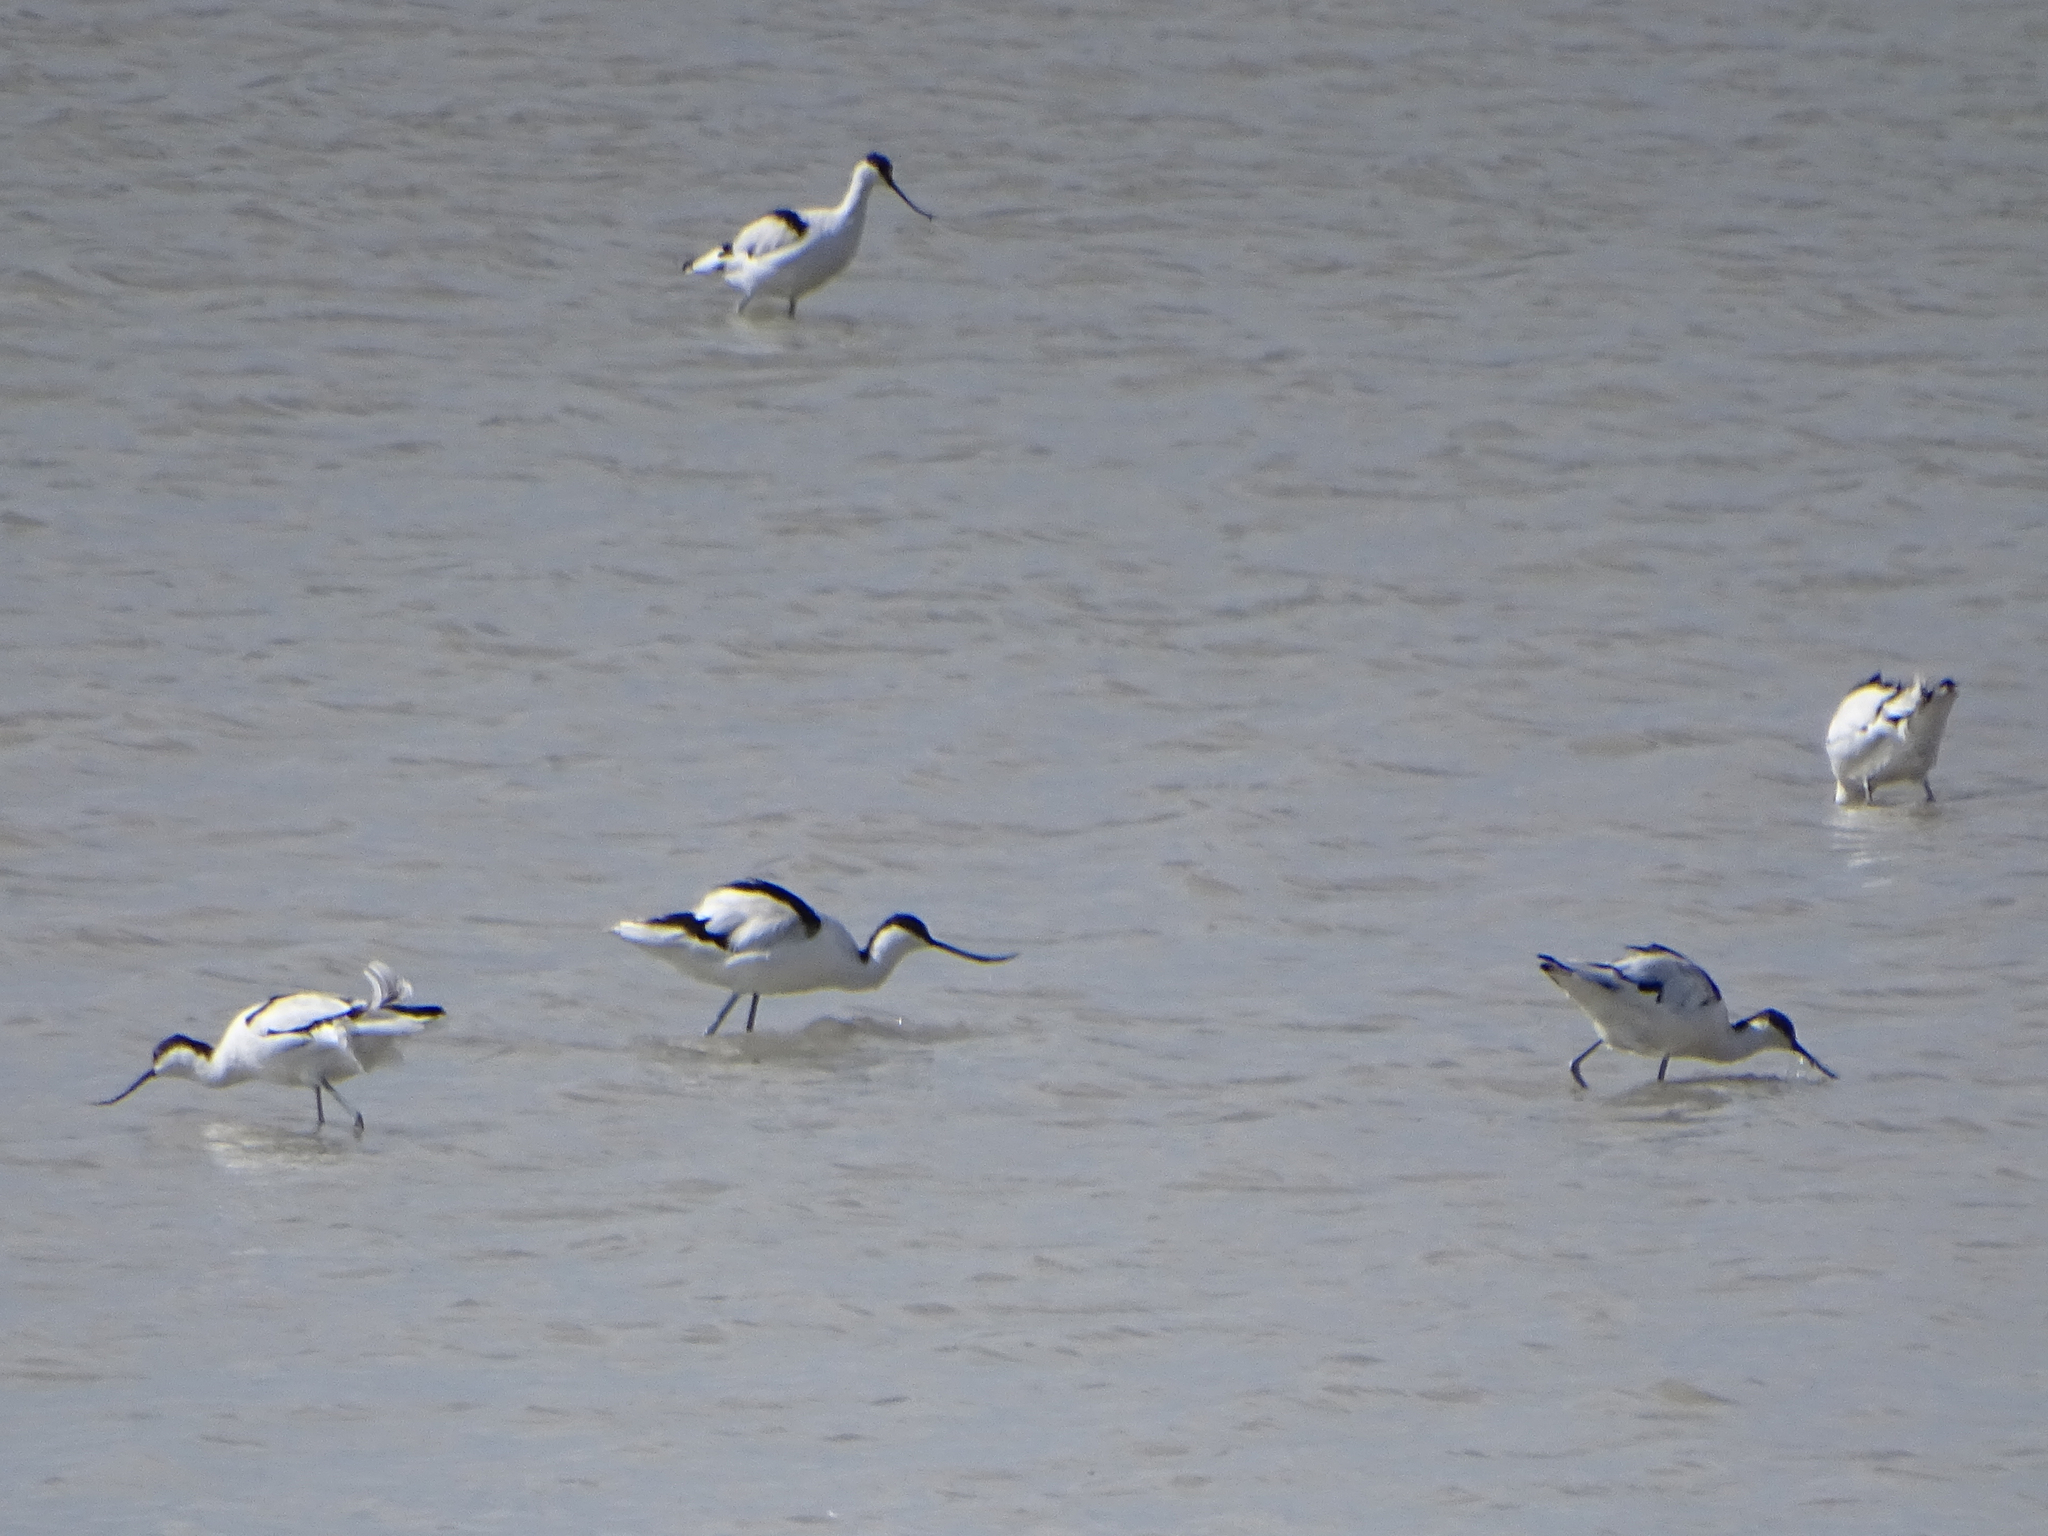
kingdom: Animalia
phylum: Chordata
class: Aves
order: Charadriiformes
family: Recurvirostridae
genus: Recurvirostra
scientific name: Recurvirostra avosetta
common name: Pied avocet
